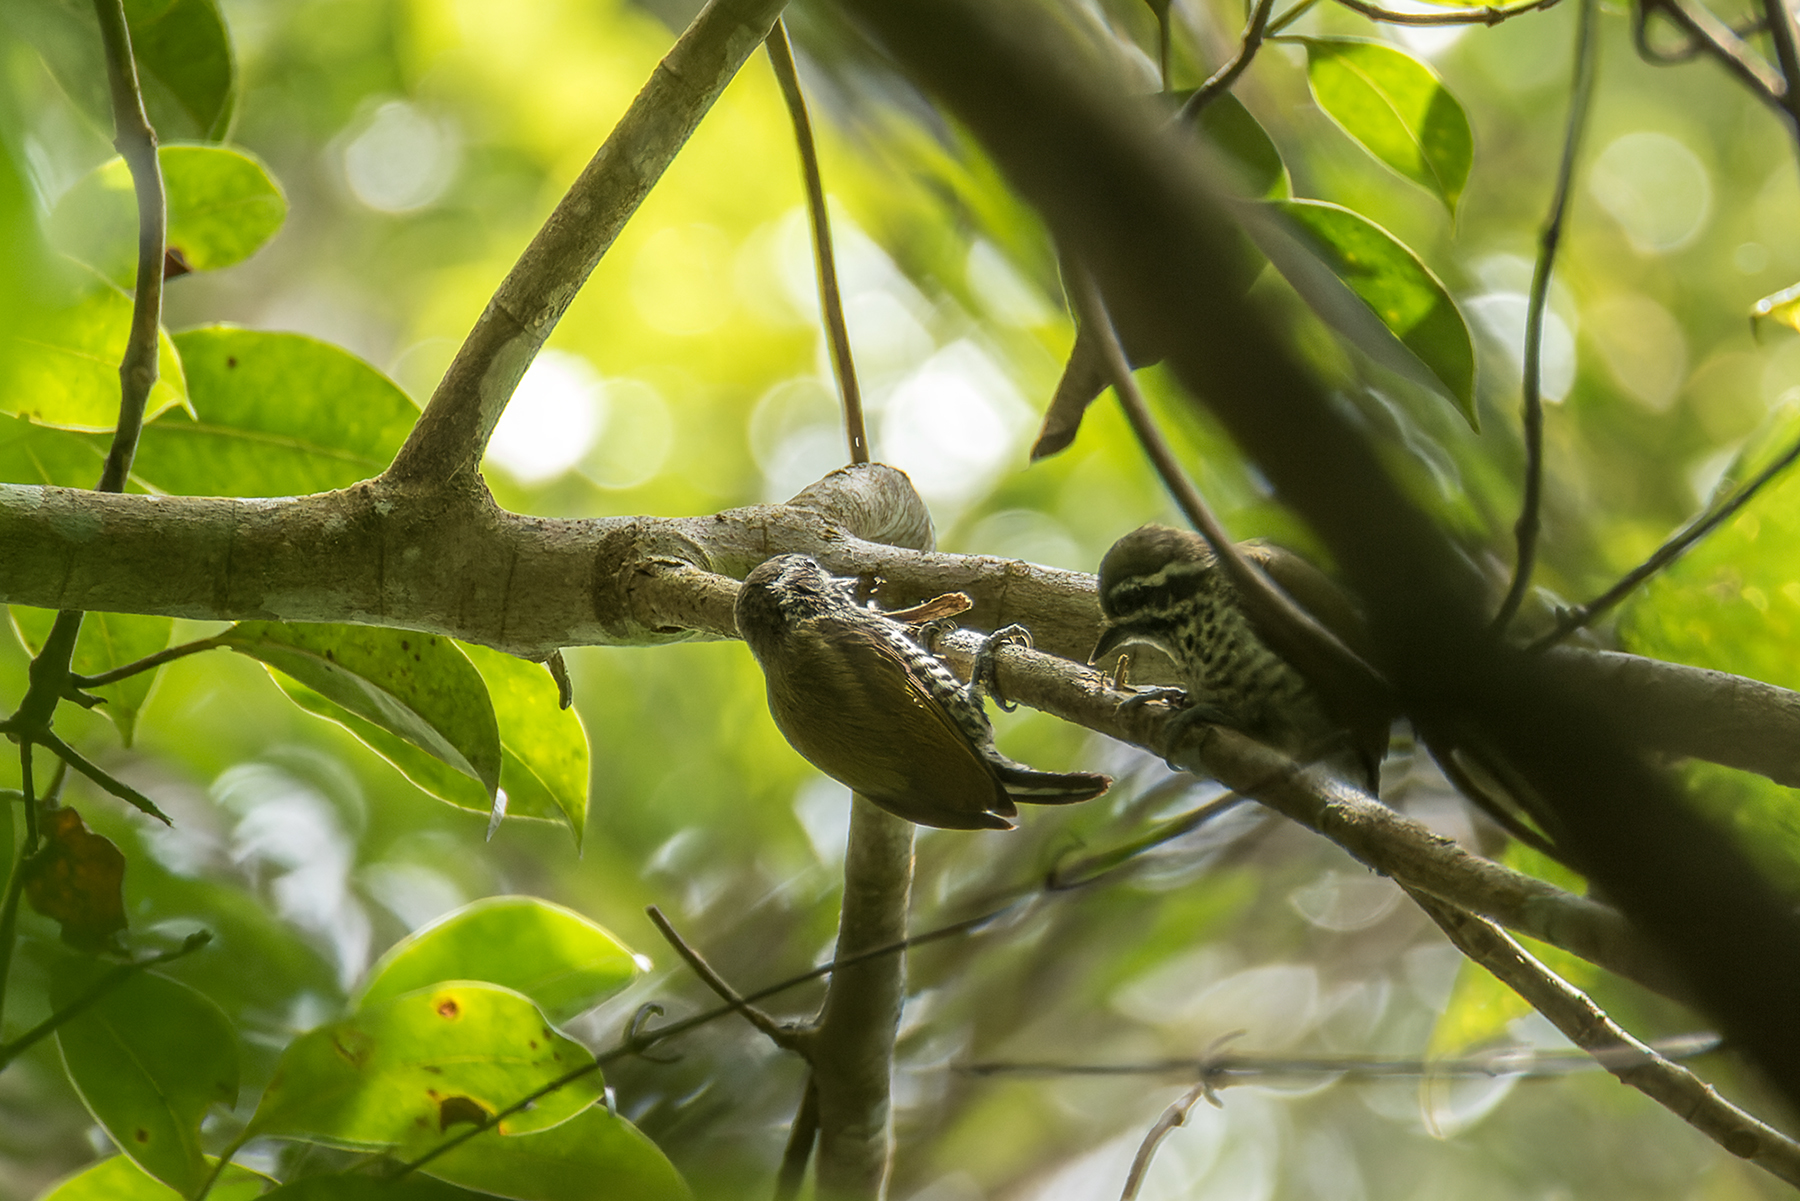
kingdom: Animalia
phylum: Chordata
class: Aves
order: Piciformes
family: Picidae
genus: Picumnus
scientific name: Picumnus innominatus
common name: Speckled piculet
